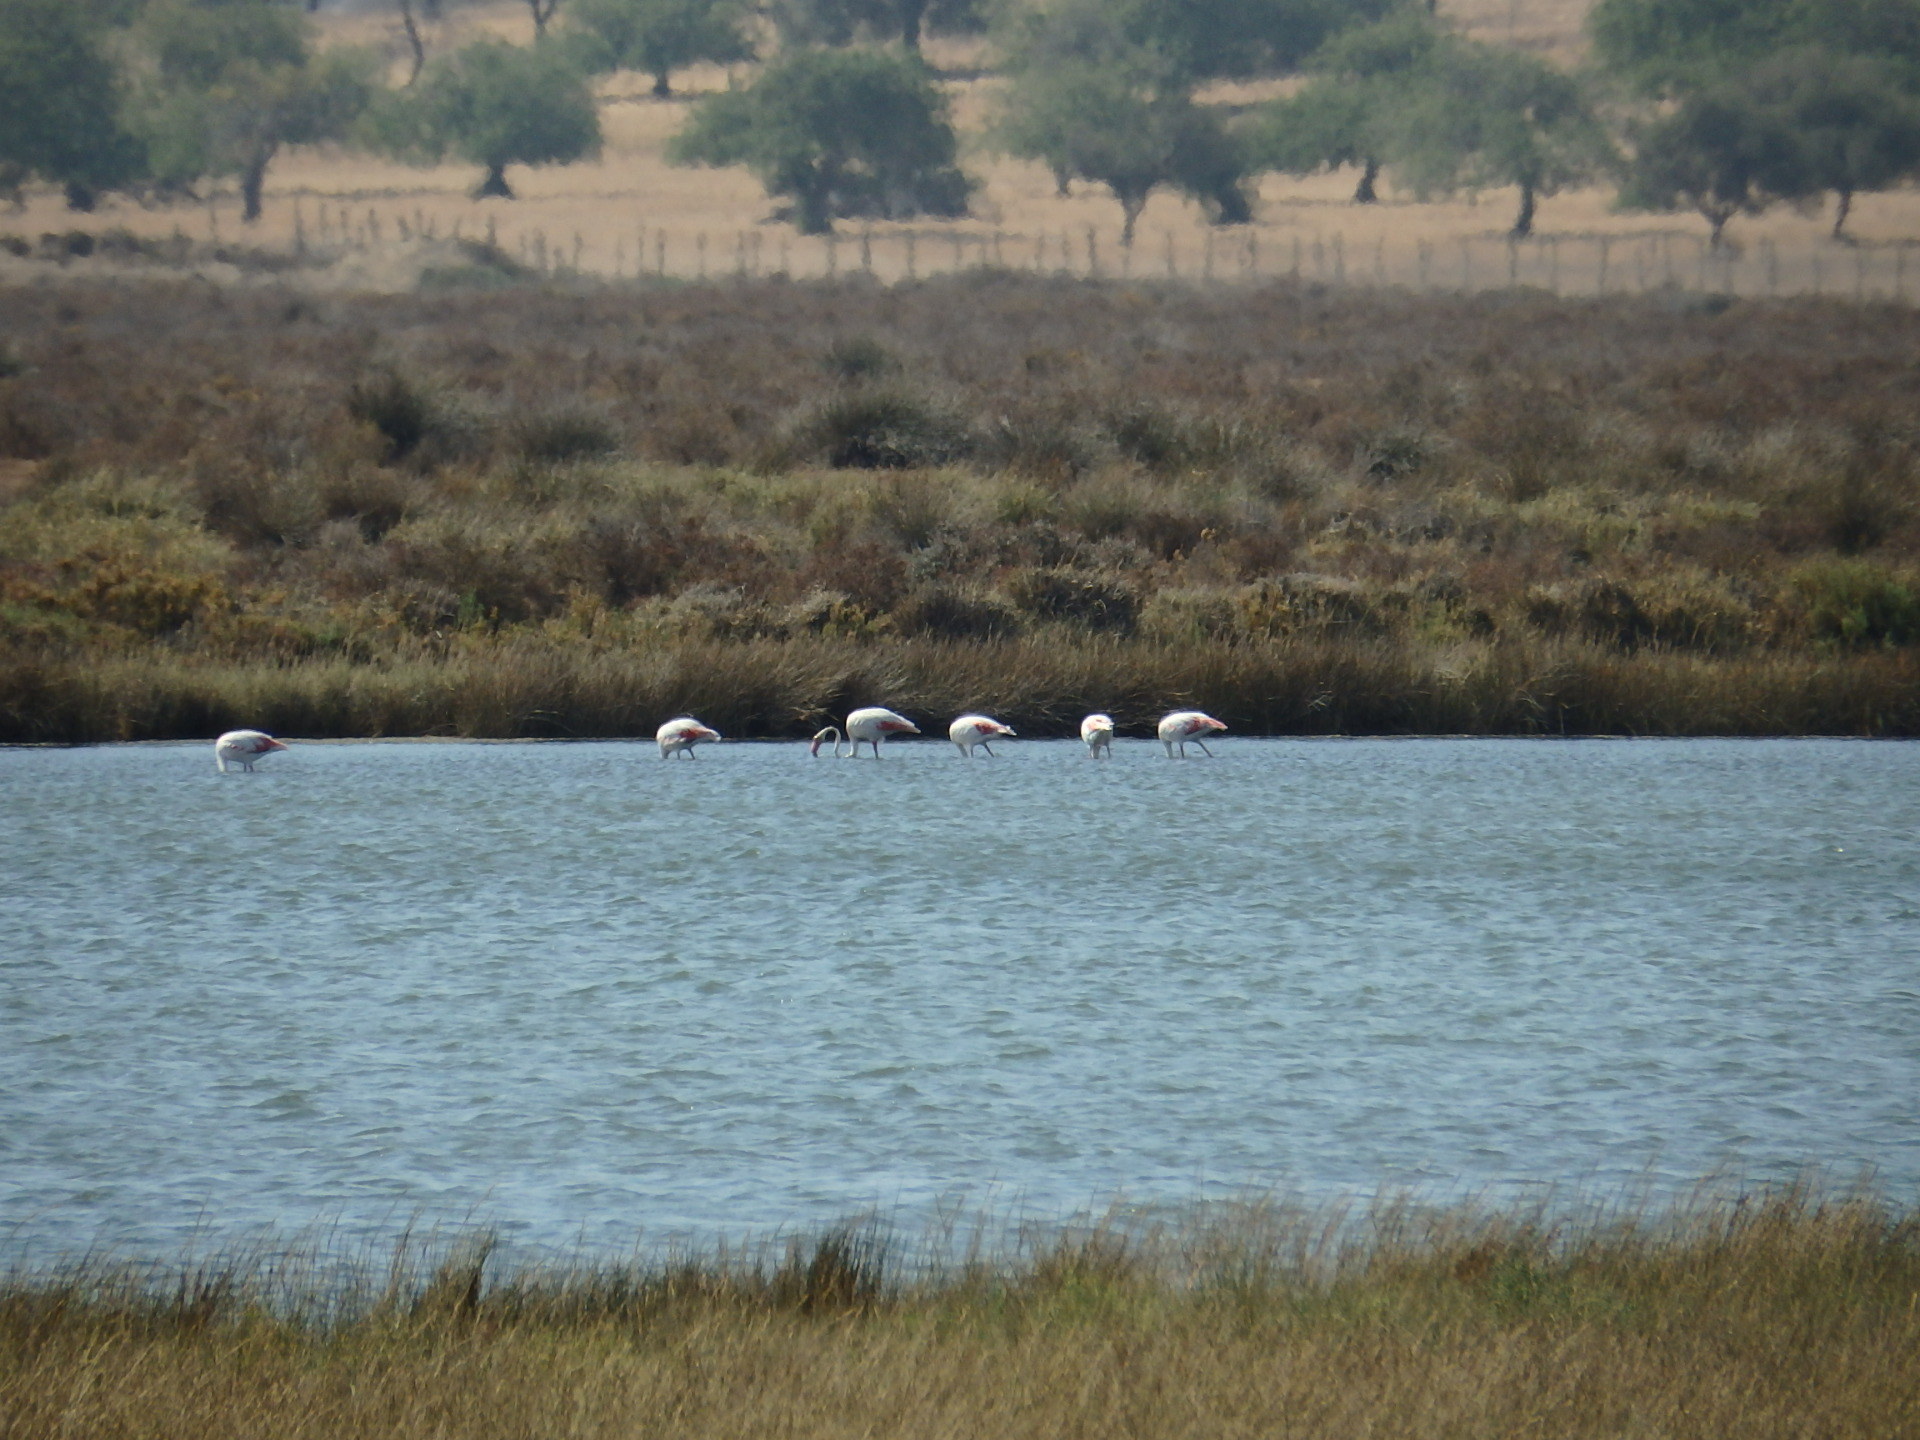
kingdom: Animalia
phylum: Chordata
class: Aves
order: Phoenicopteriformes
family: Phoenicopteridae
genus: Phoenicopterus
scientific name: Phoenicopterus roseus
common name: Greater flamingo
